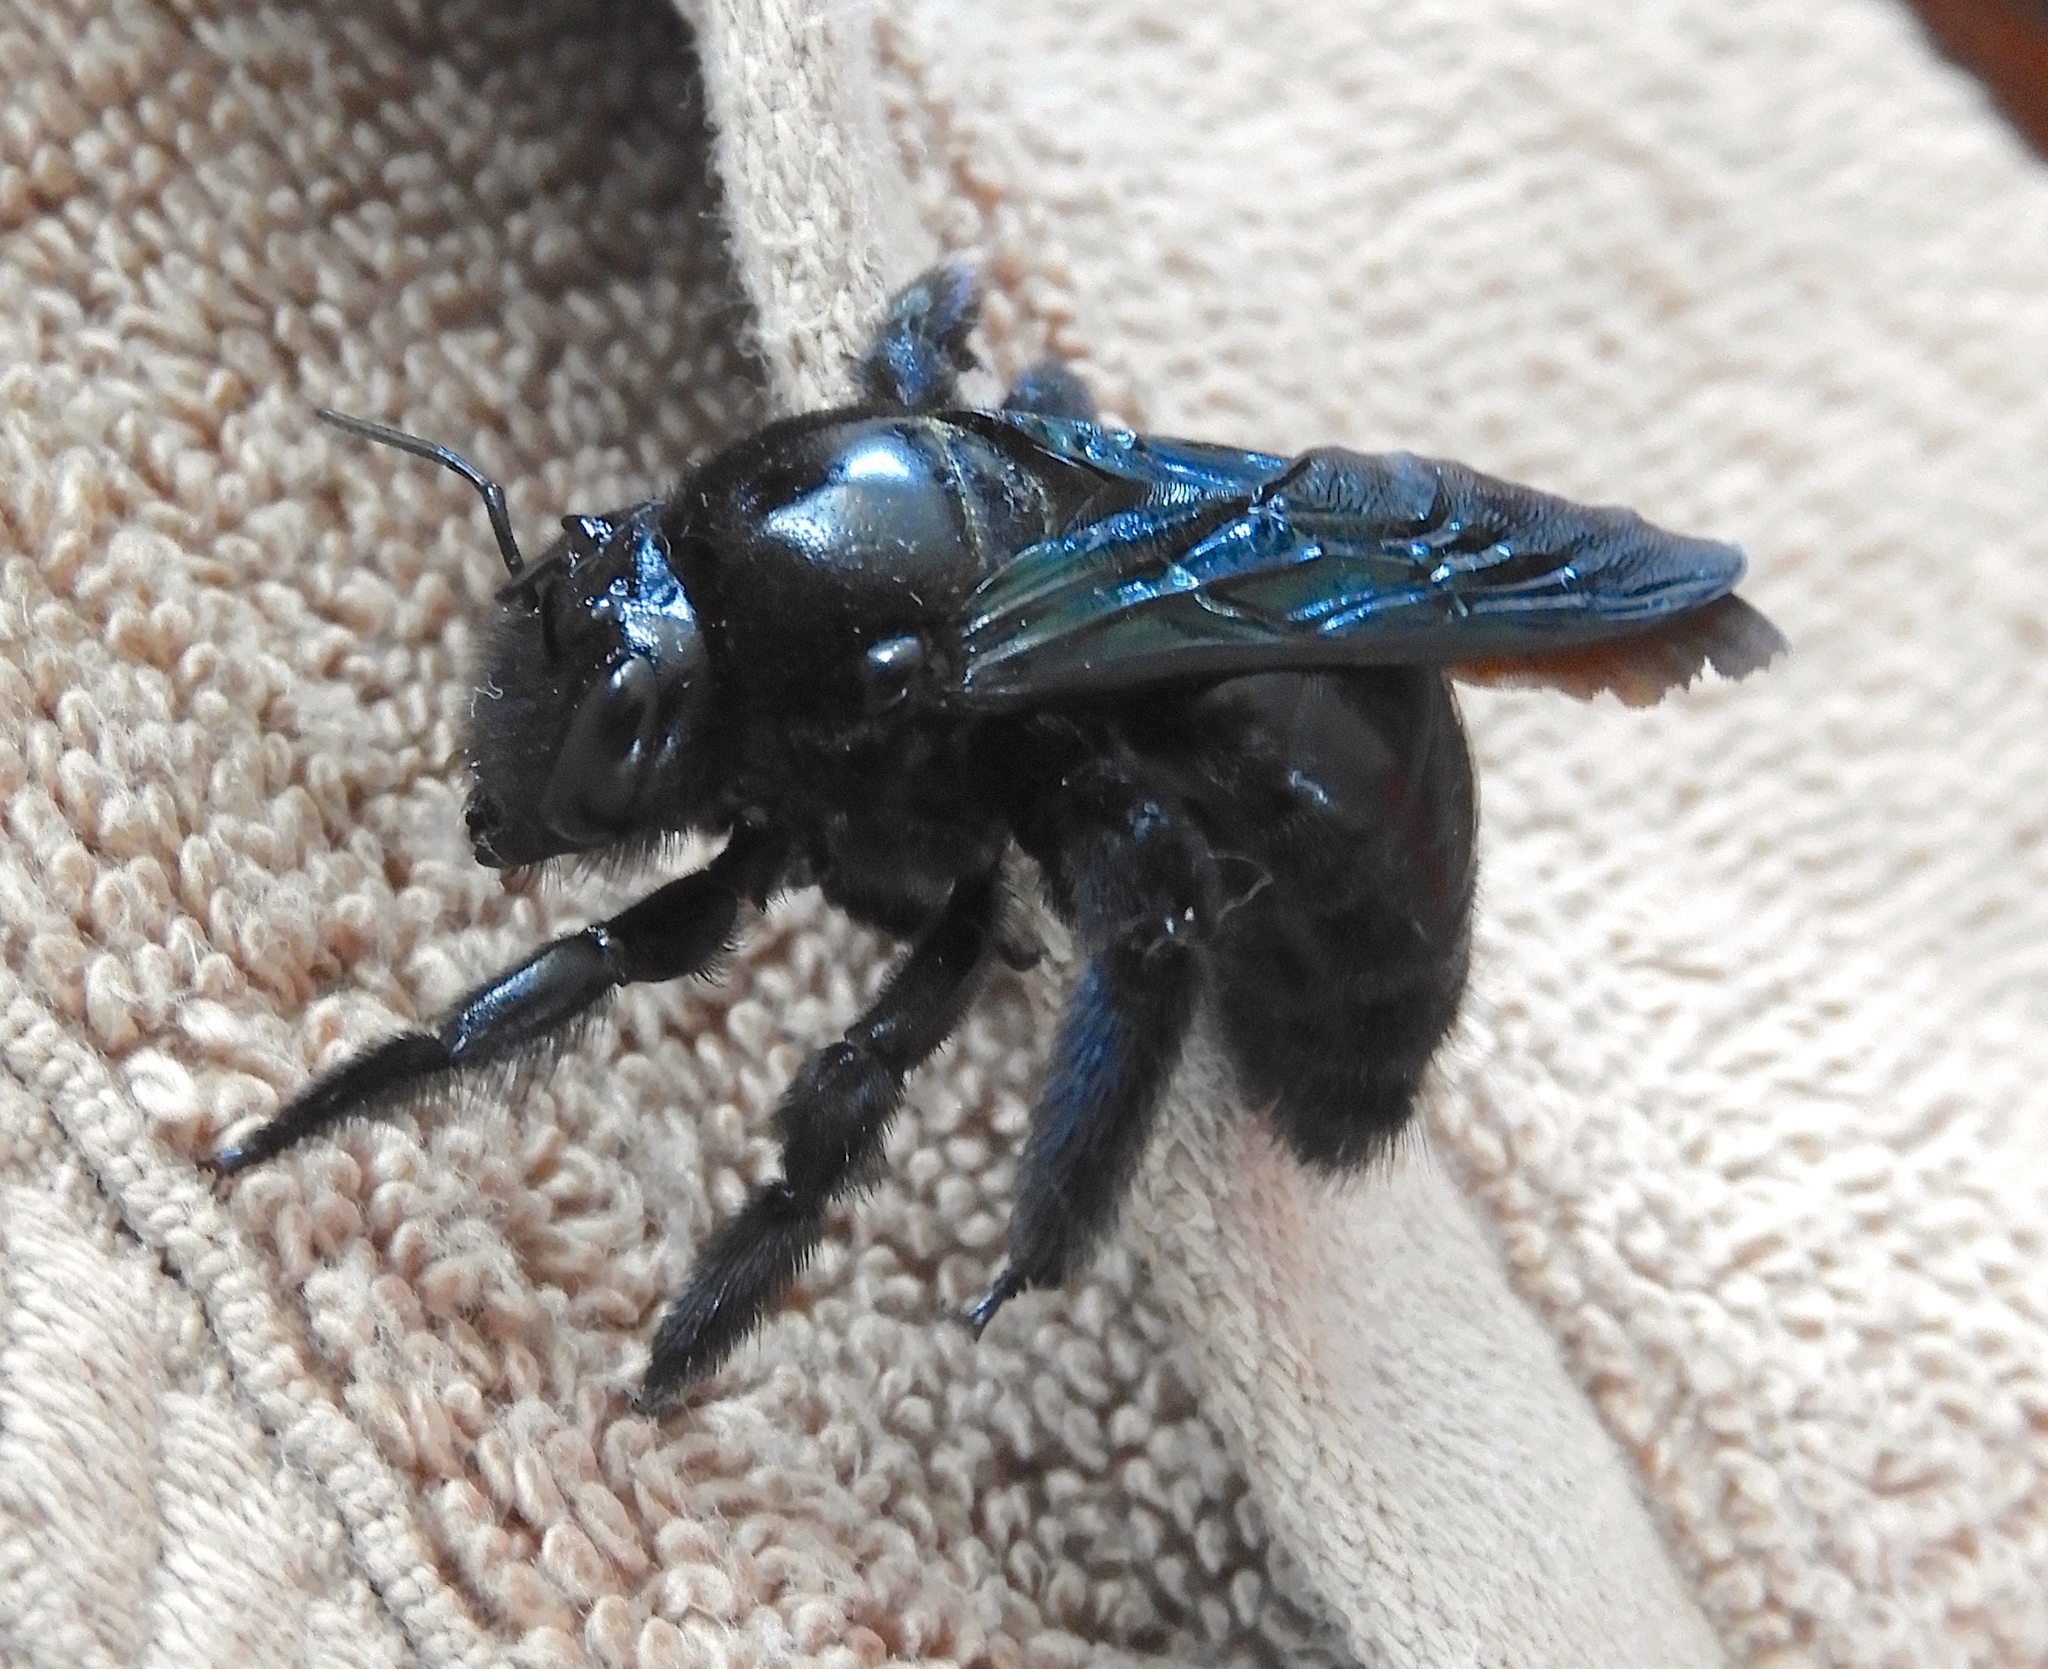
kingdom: Animalia
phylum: Arthropoda
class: Insecta
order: Hymenoptera
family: Apidae
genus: Xylocopa
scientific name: Xylocopa fimbriata
